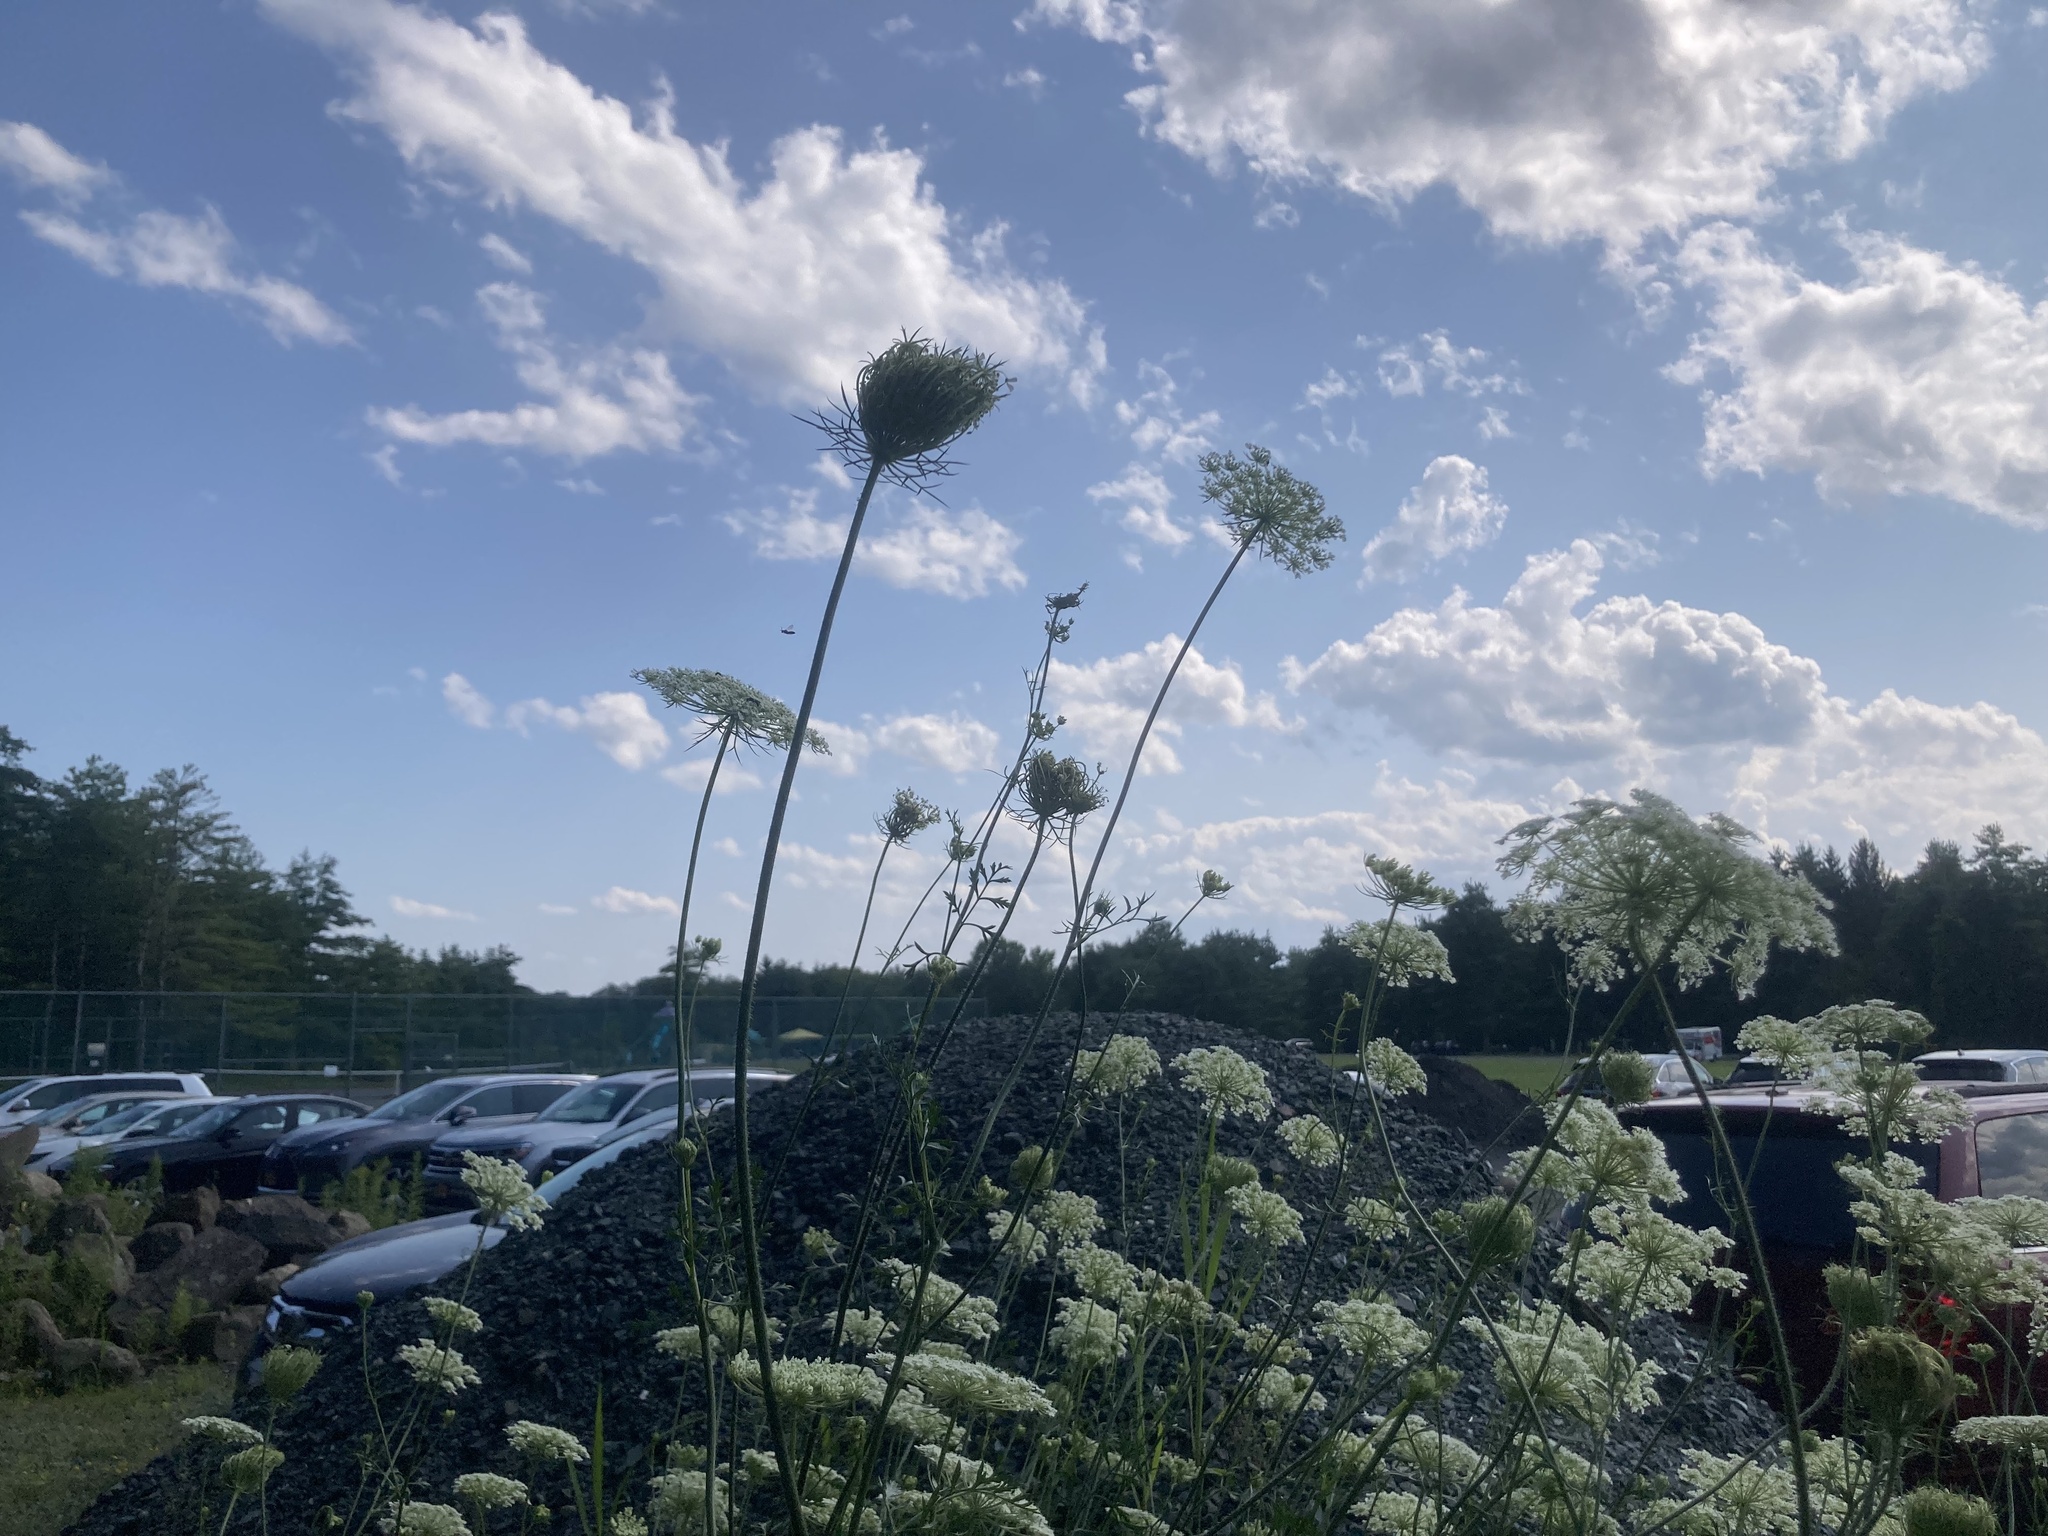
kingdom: Plantae
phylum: Tracheophyta
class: Magnoliopsida
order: Apiales
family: Apiaceae
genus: Daucus
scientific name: Daucus carota
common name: Wild carrot
